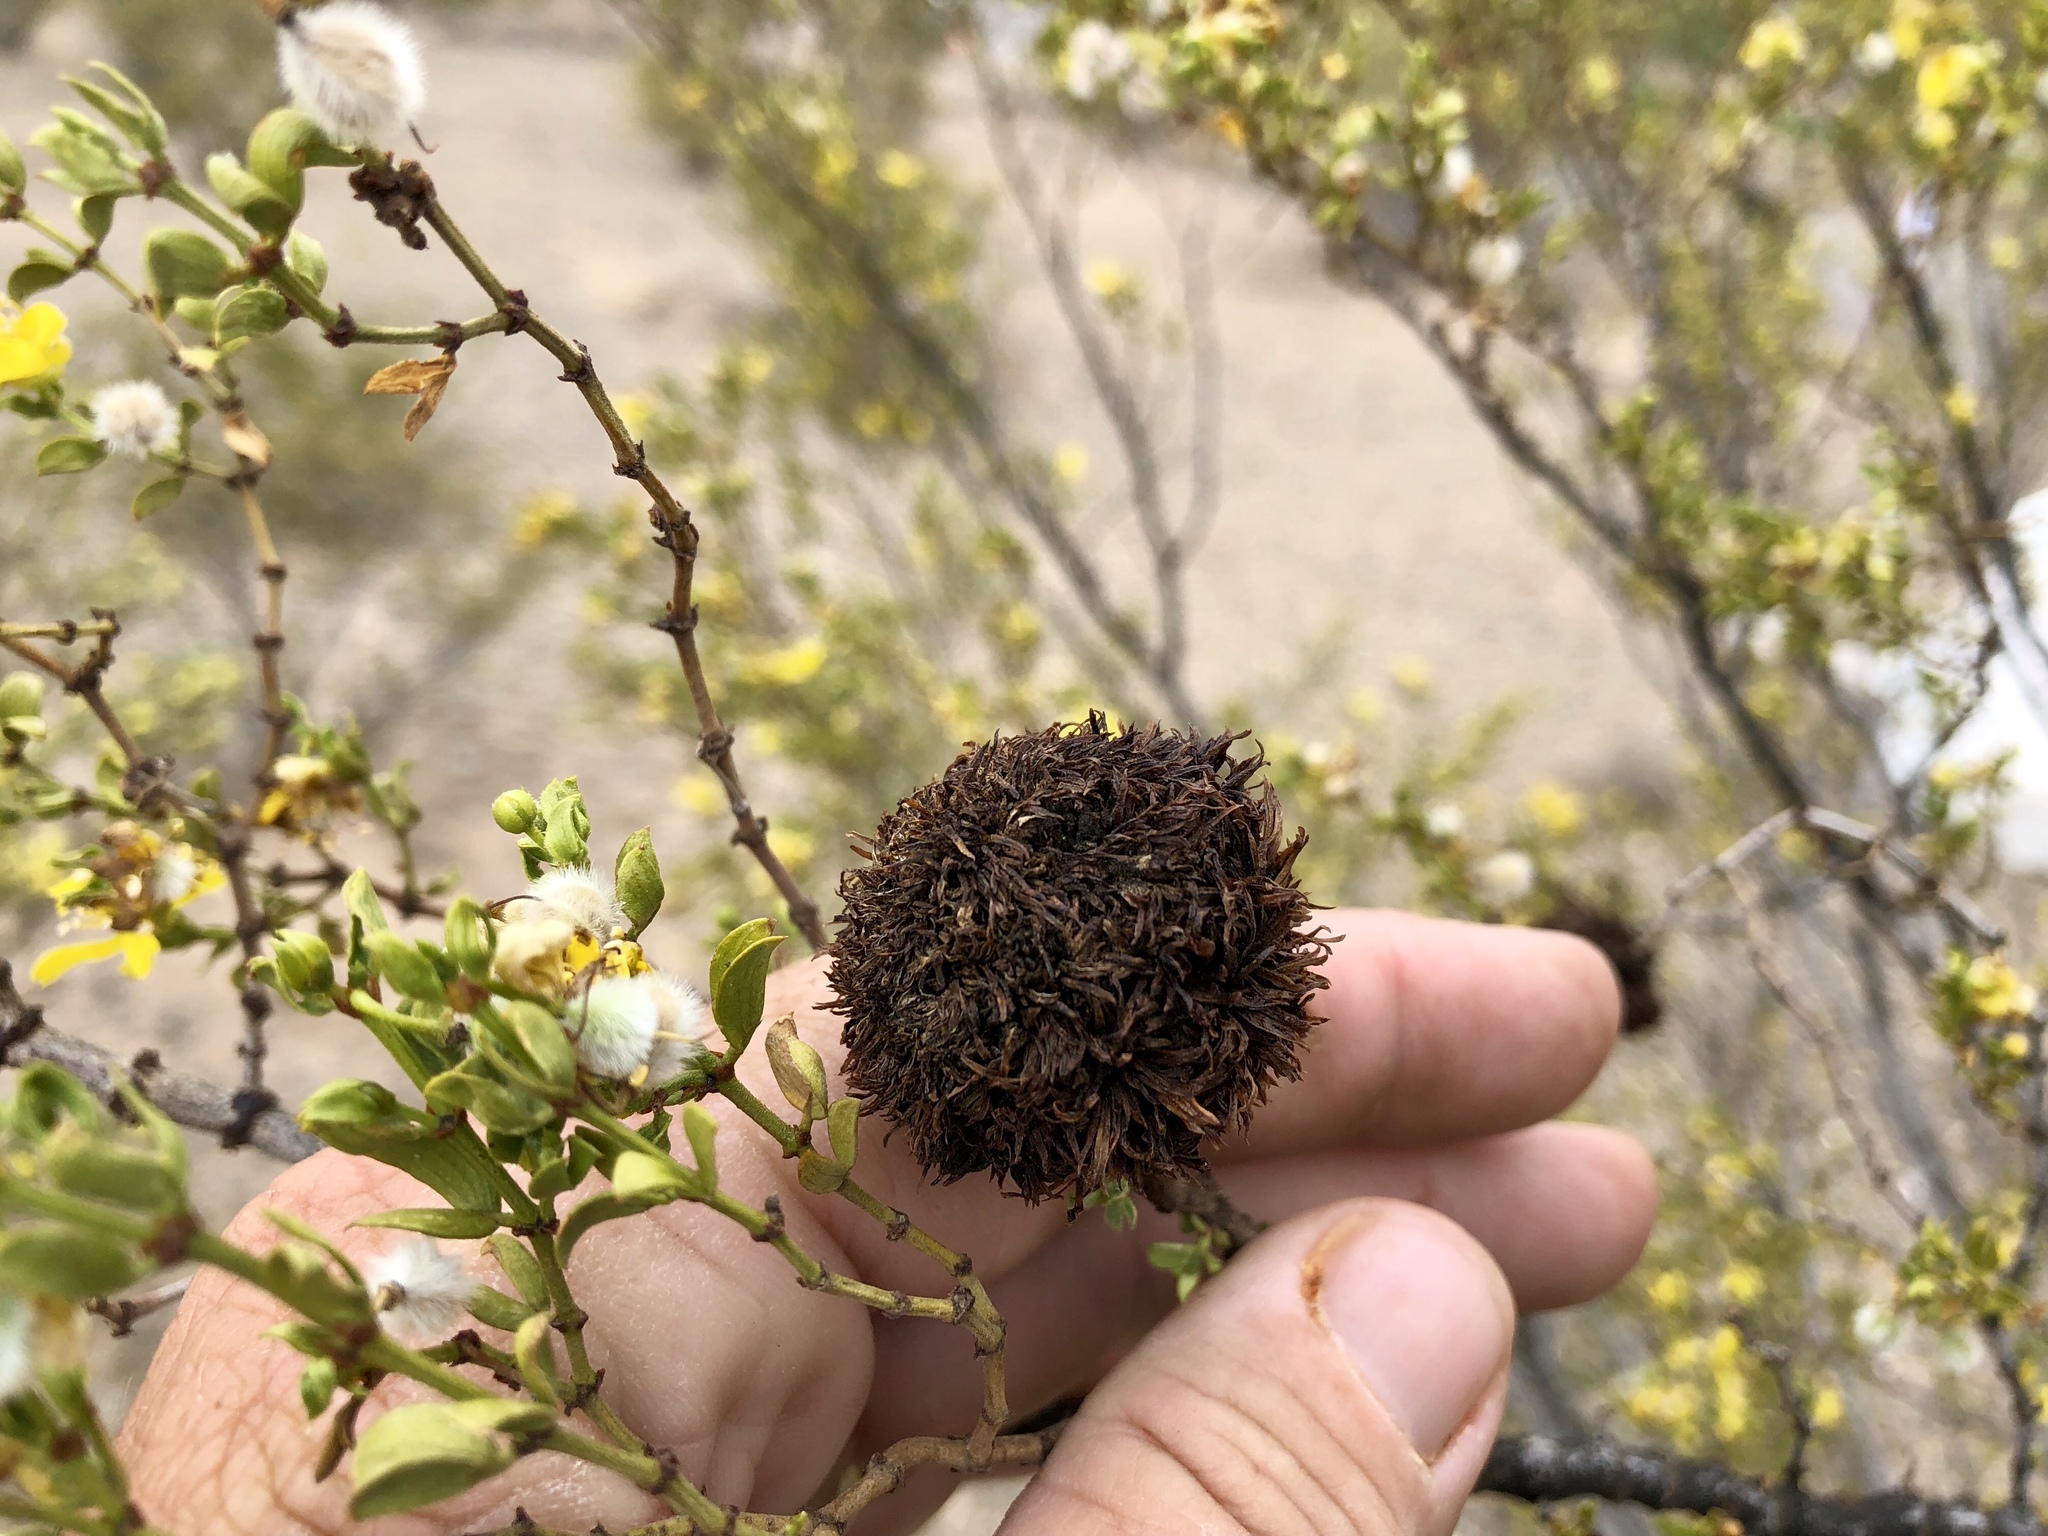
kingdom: Animalia
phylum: Arthropoda
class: Insecta
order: Diptera
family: Cecidomyiidae
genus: Asphondylia
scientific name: Asphondylia auripila
